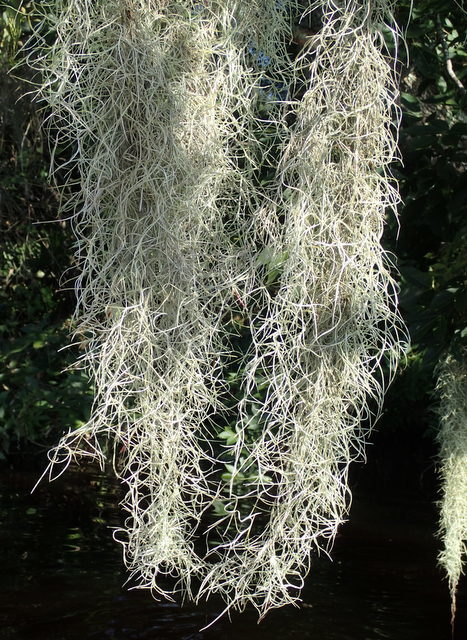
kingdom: Plantae
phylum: Tracheophyta
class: Liliopsida
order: Poales
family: Bromeliaceae
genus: Tillandsia
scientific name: Tillandsia usneoides
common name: Spanish moss
